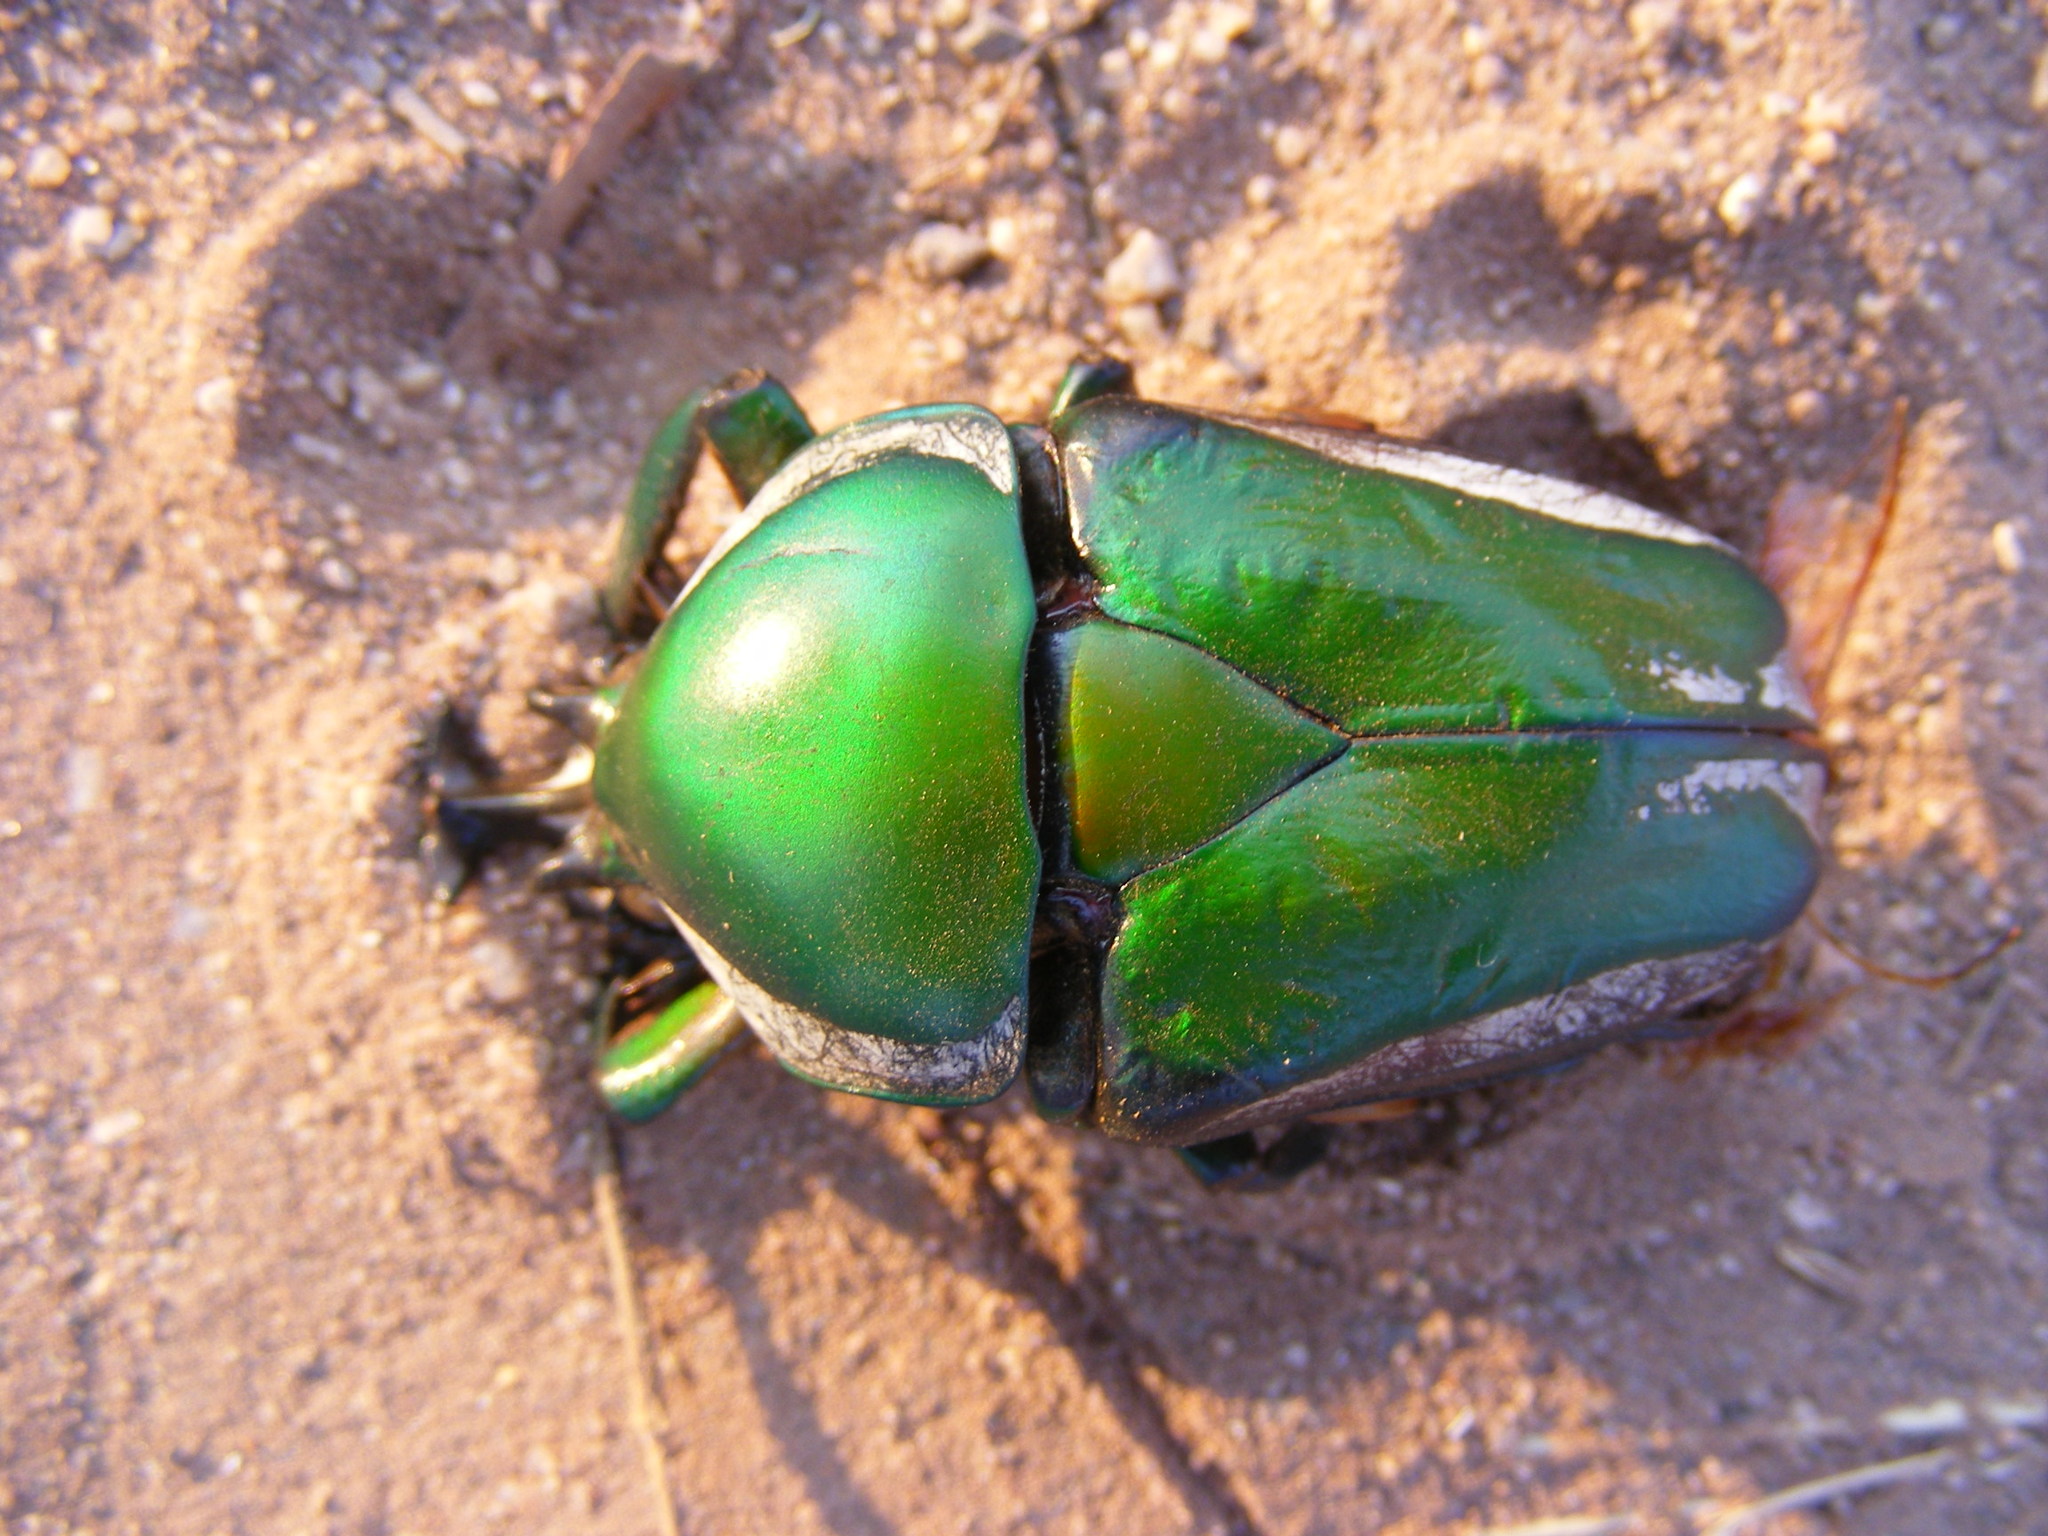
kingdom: Animalia
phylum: Arthropoda
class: Insecta
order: Coleoptera
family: Scarabaeidae
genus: Dicronorhina
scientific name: Dicronorhina derbyana
